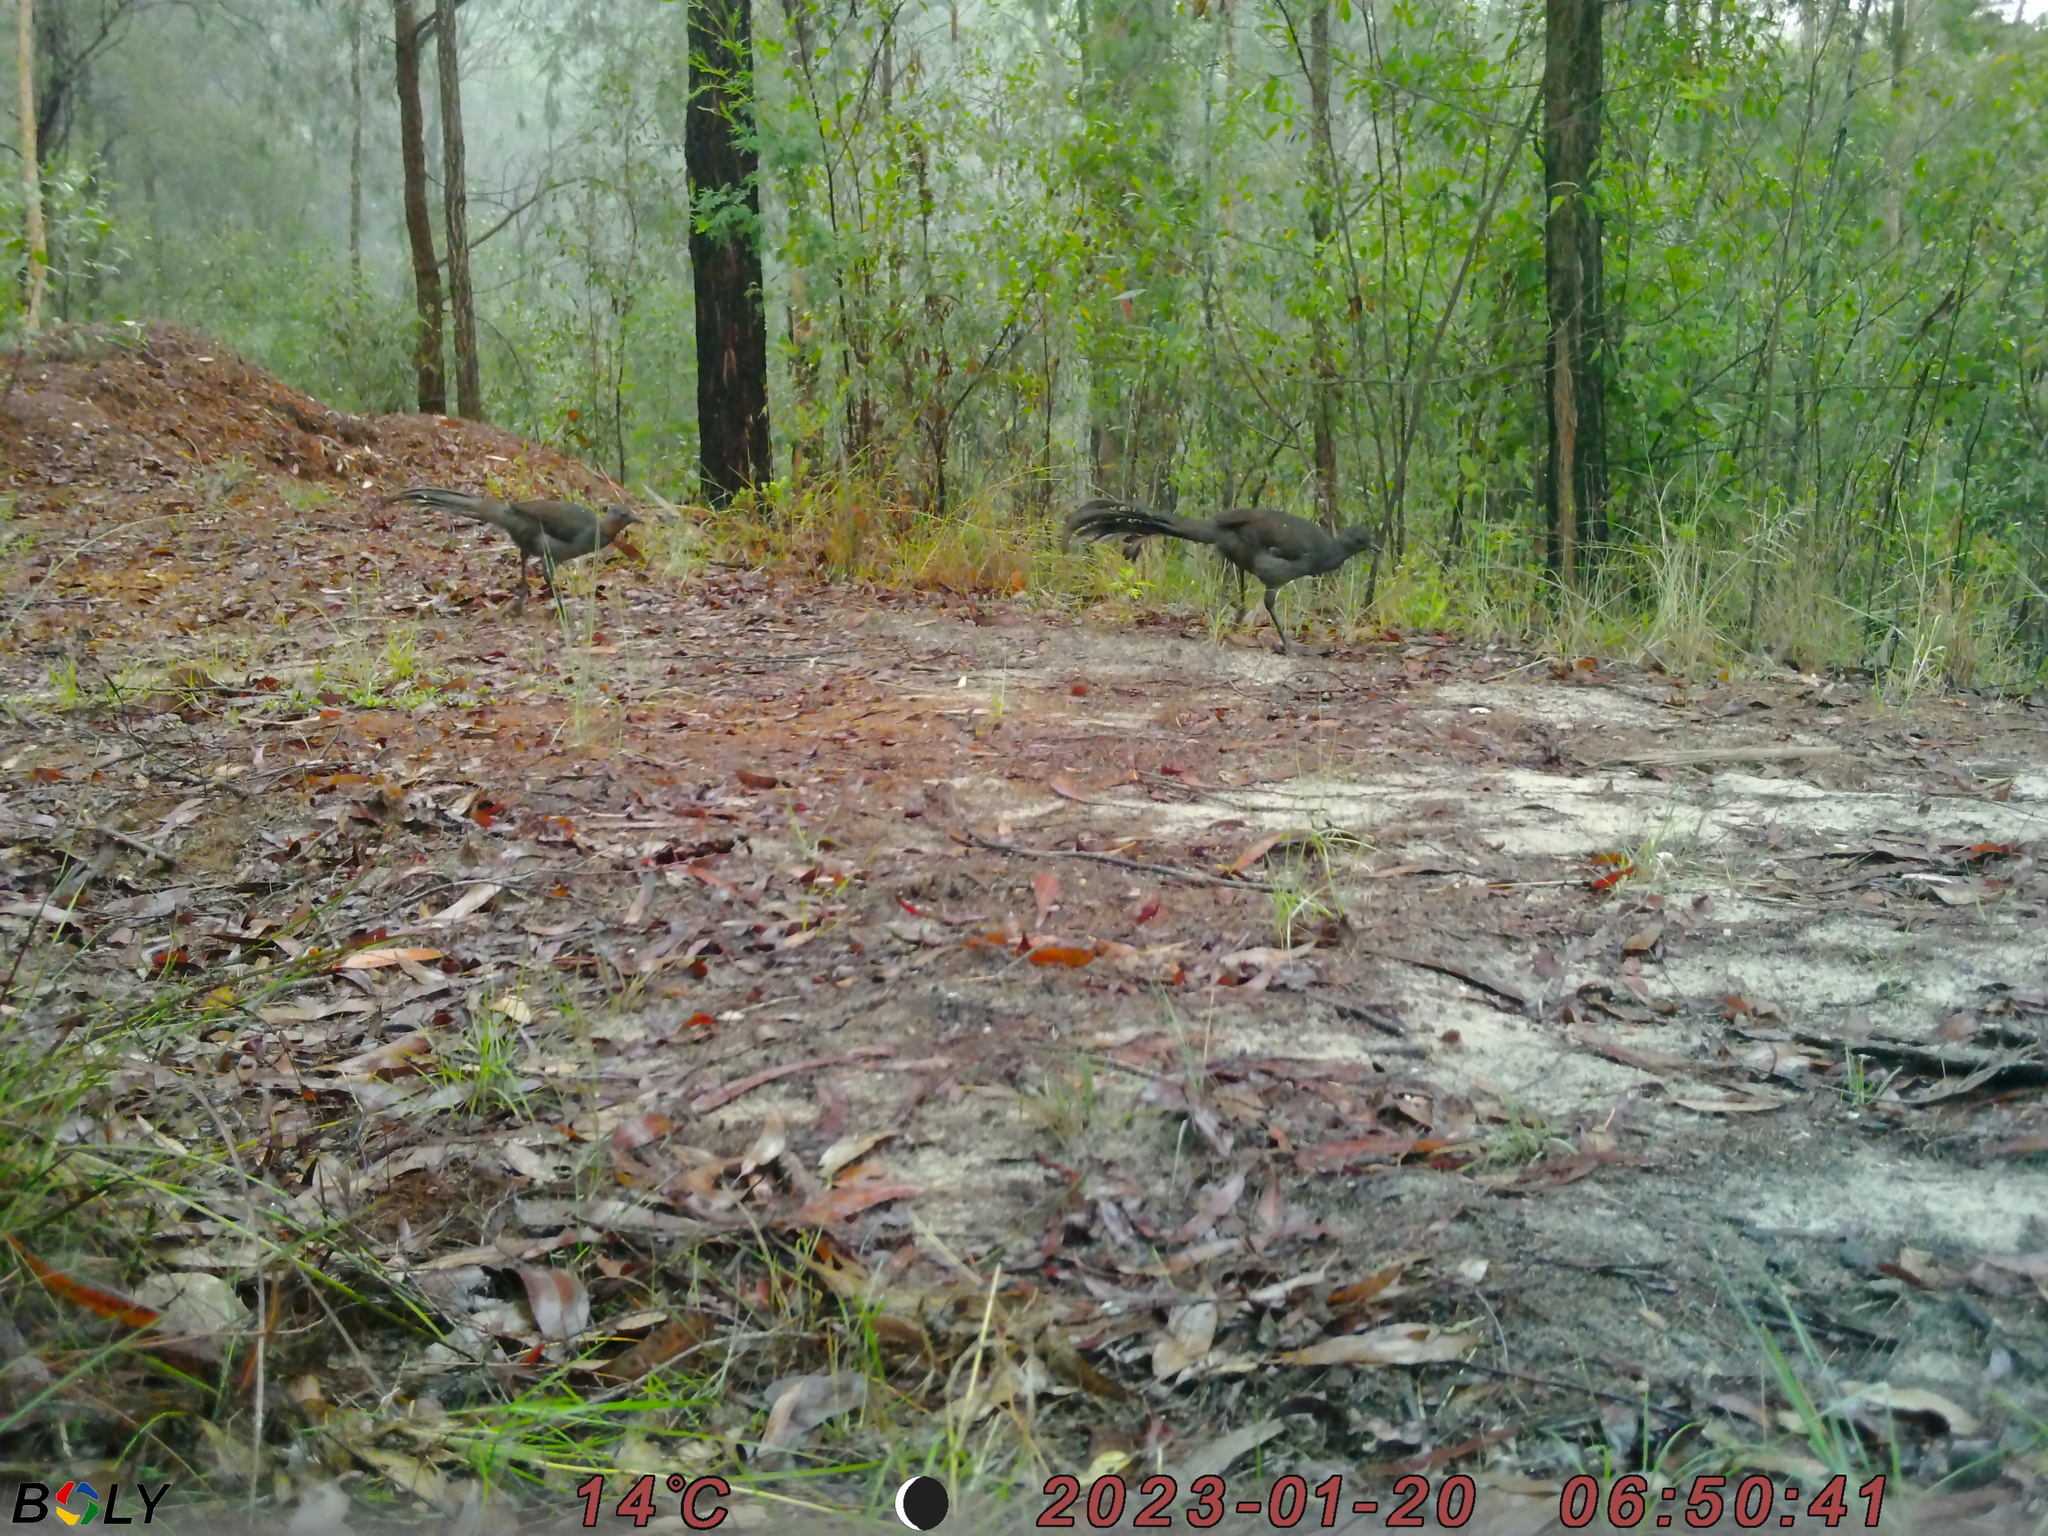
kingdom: Animalia
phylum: Chordata
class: Aves
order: Passeriformes
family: Menuridae
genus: Menura
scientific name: Menura novaehollandiae
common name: Superb lyrebird
